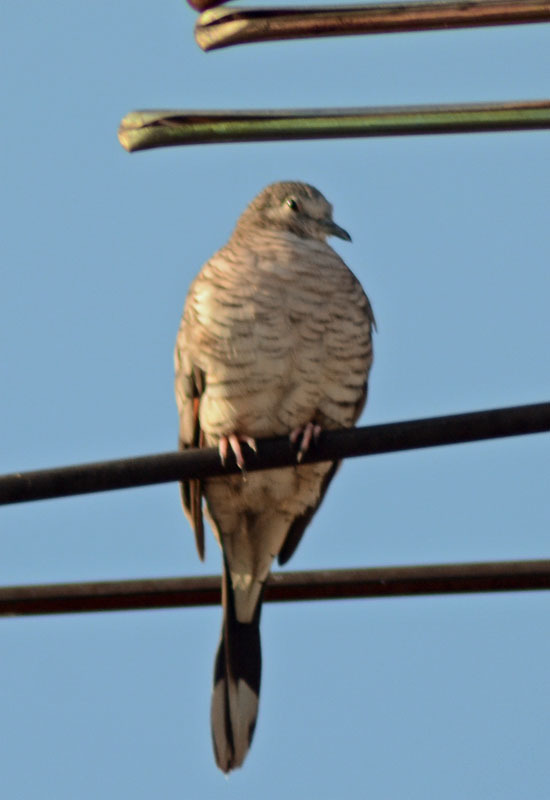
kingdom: Animalia
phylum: Chordata
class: Aves
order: Columbiformes
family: Columbidae
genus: Columbina
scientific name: Columbina inca
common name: Inca dove
